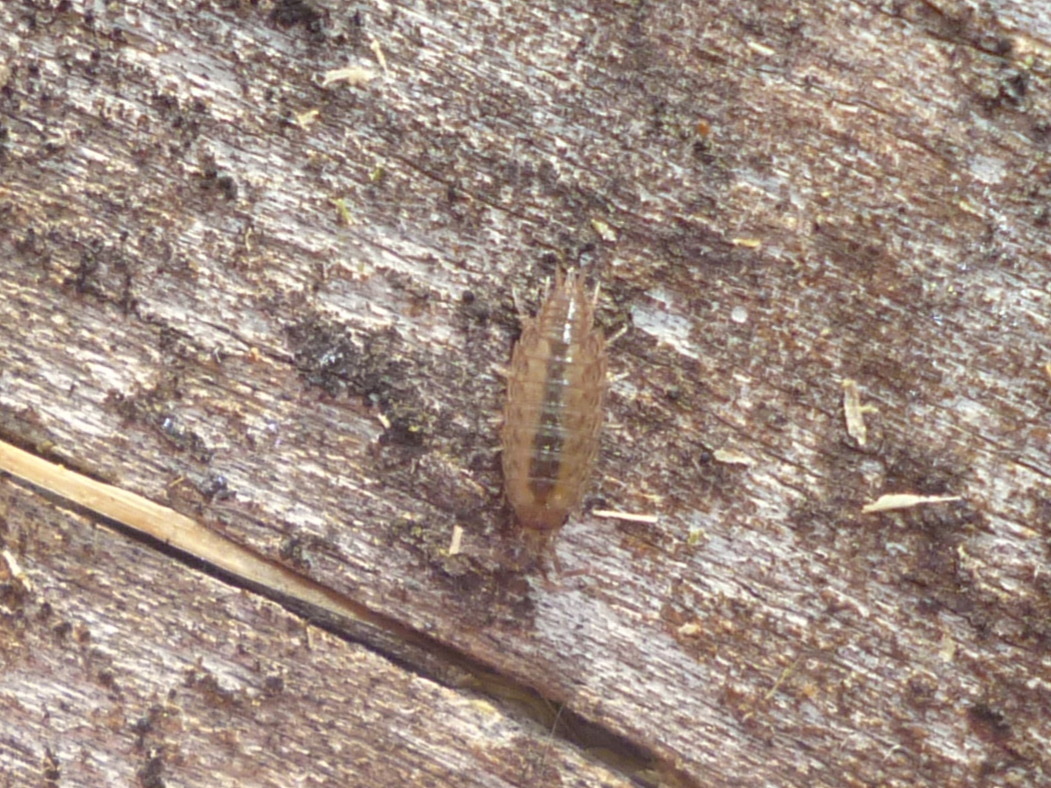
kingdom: Animalia
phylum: Arthropoda
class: Malacostraca
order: Isopoda
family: Philosciidae
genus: Philoscia
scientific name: Philoscia muscorum
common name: Common striped woodlouse
